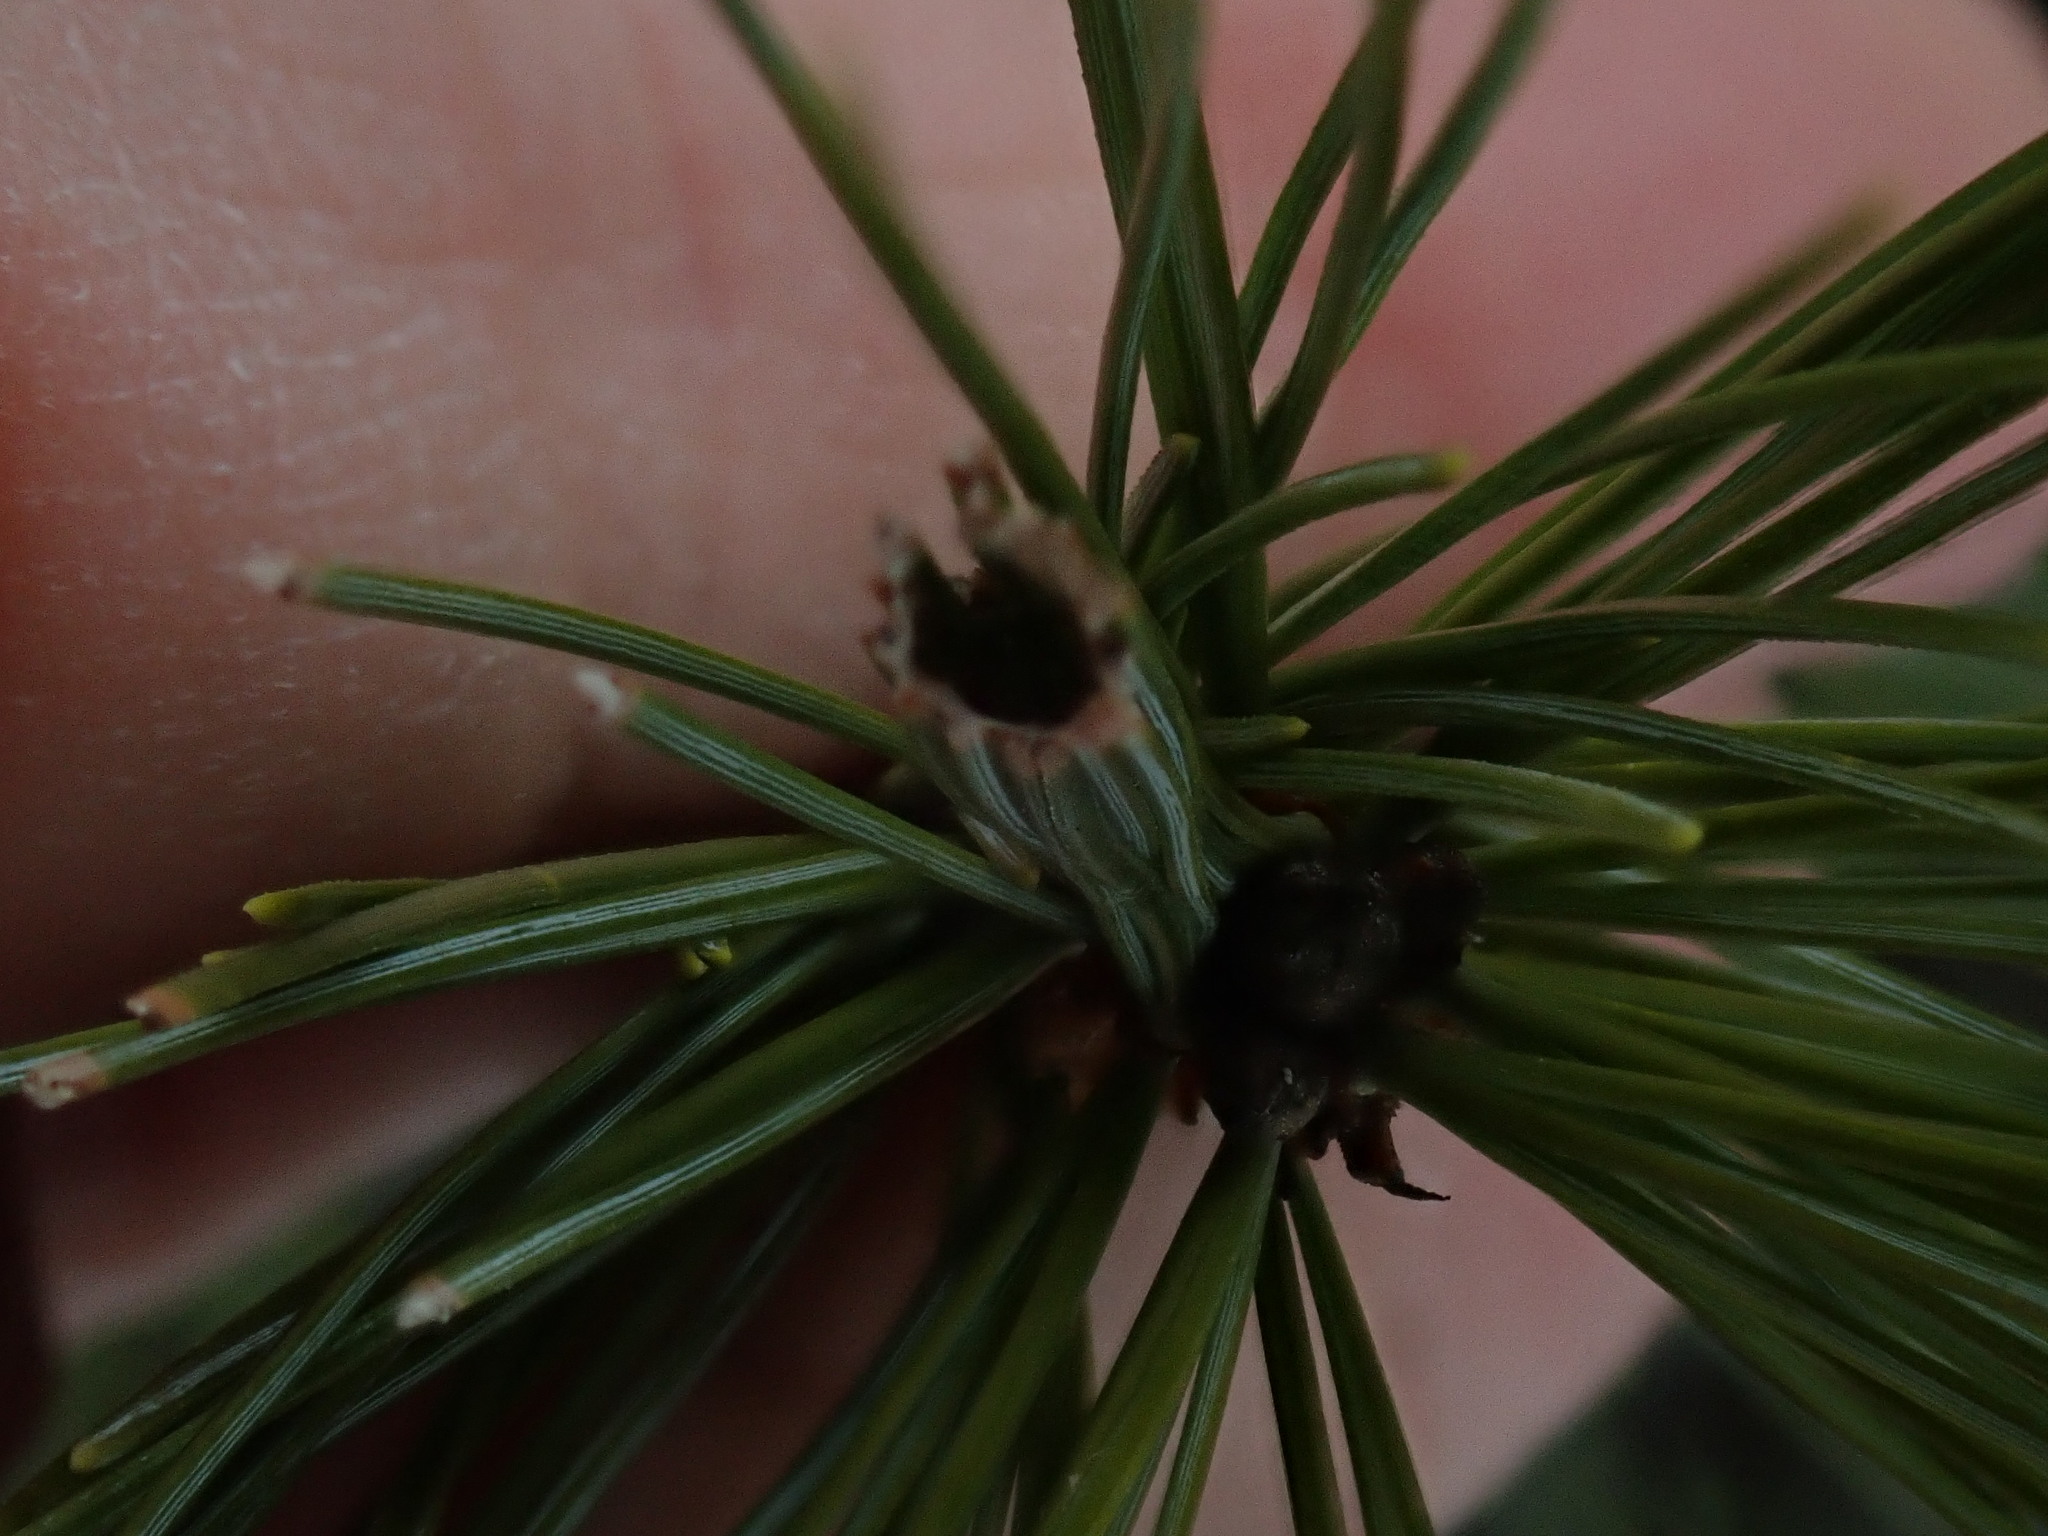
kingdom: Animalia
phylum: Arthropoda
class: Insecta
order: Lepidoptera
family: Tortricidae
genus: Argyrotaenia
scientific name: Argyrotaenia pinatubana
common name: Pine tube moth
